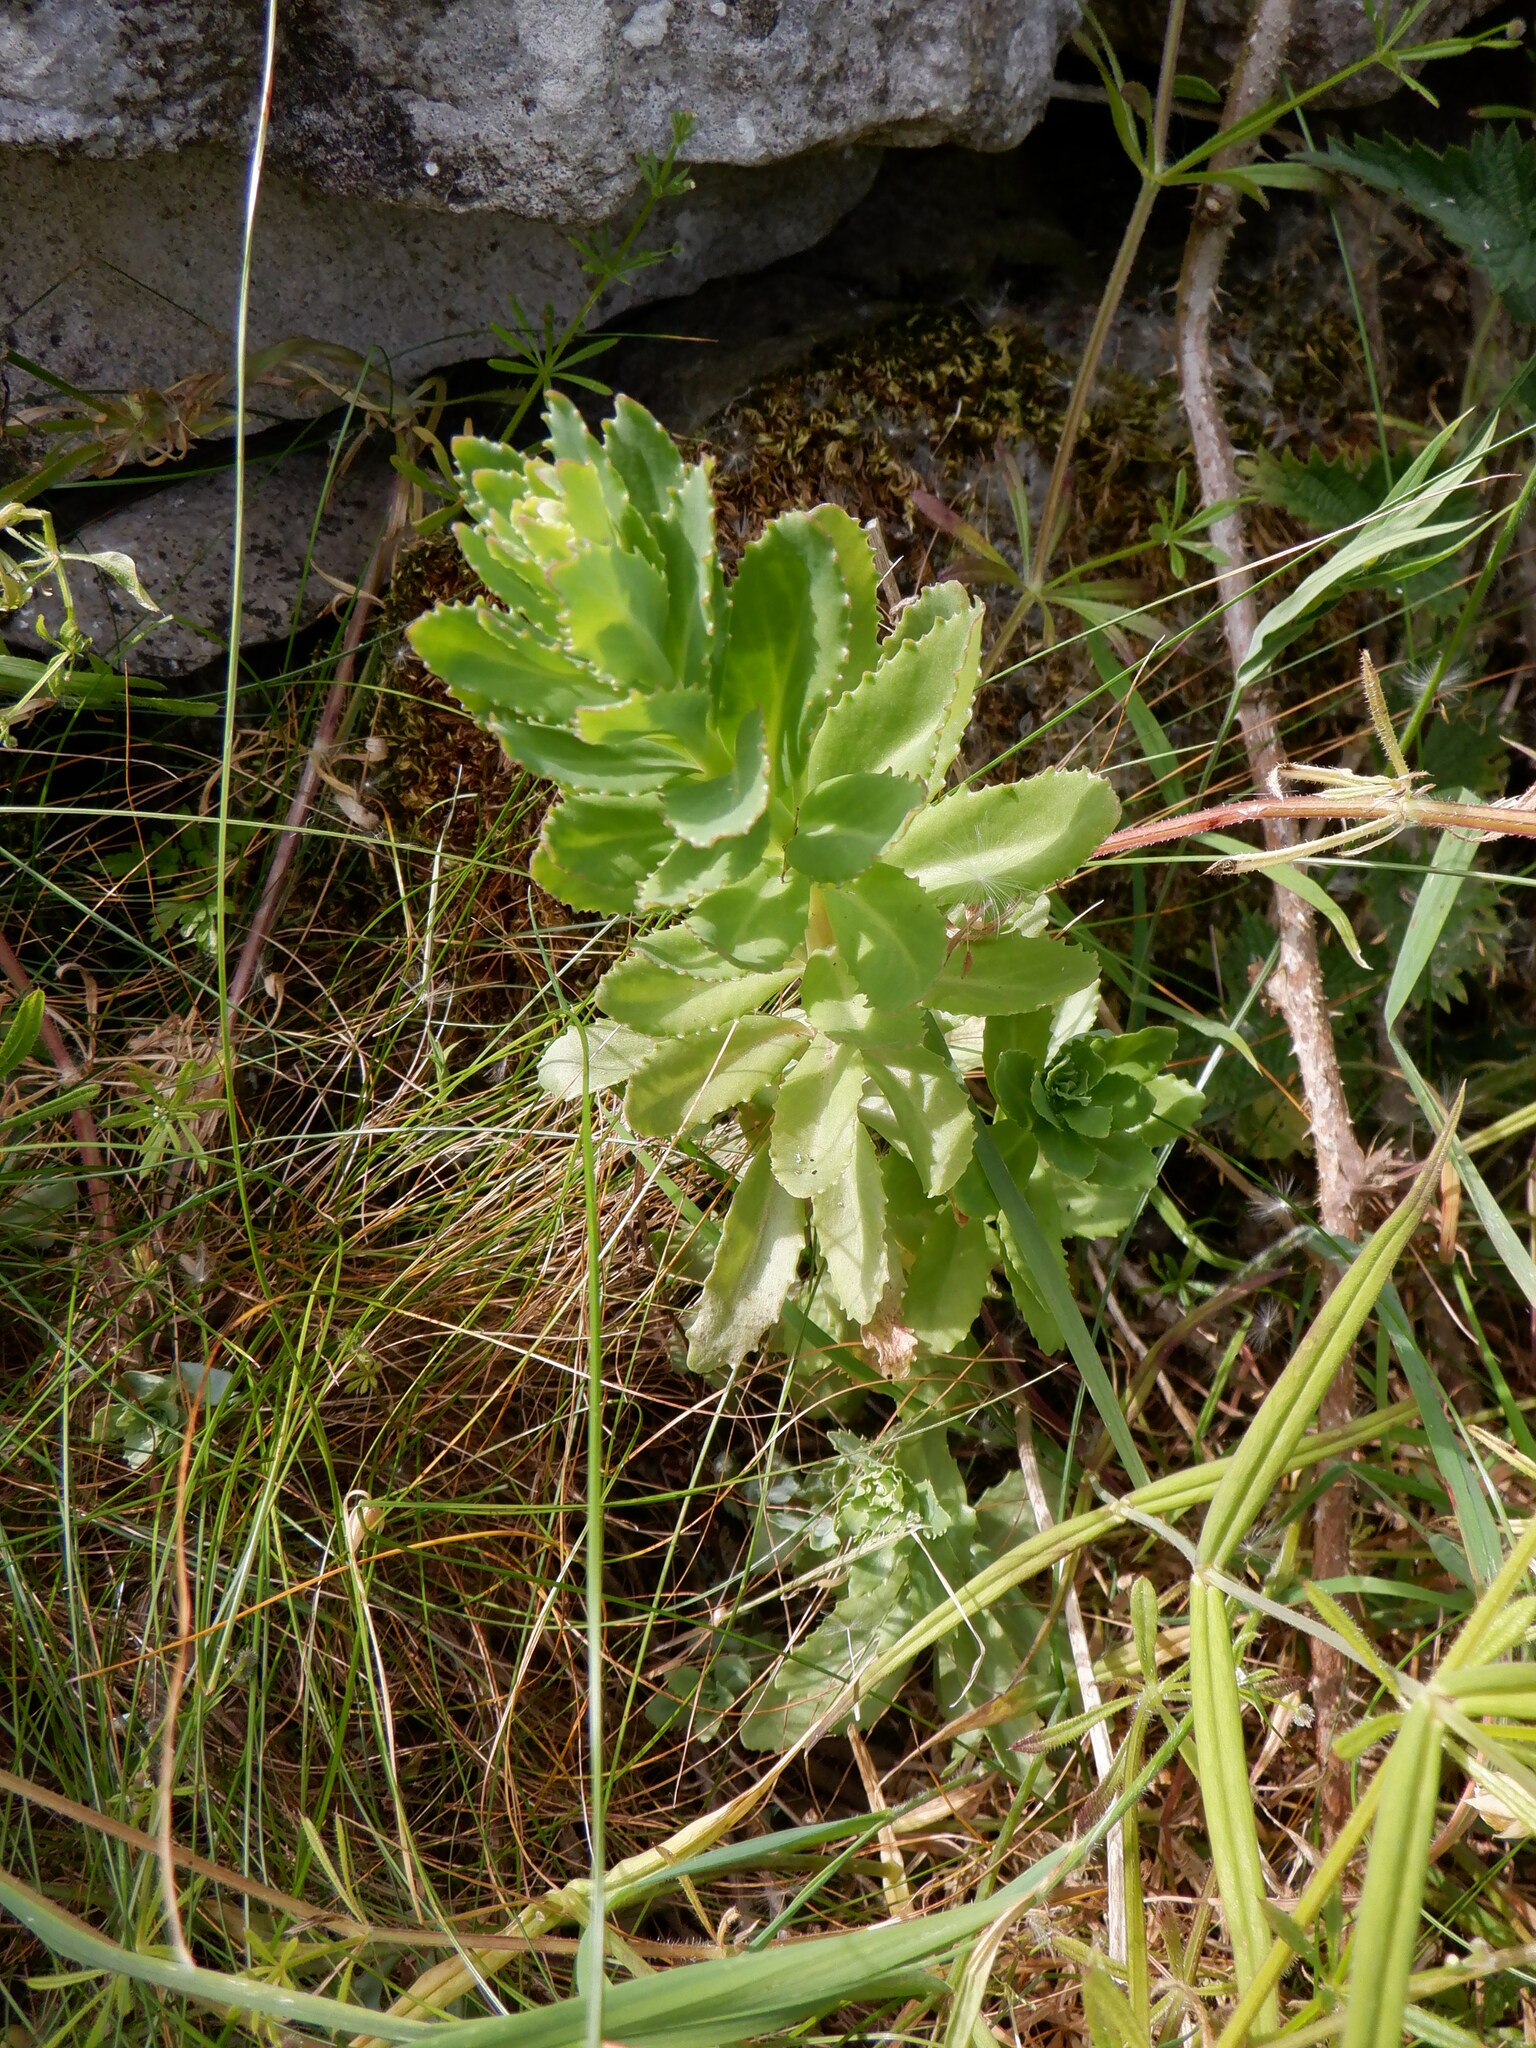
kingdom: Plantae
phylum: Tracheophyta
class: Magnoliopsida
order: Saxifragales
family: Crassulaceae
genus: Hylotelephium
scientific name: Hylotelephium telephium
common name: Live-forever
